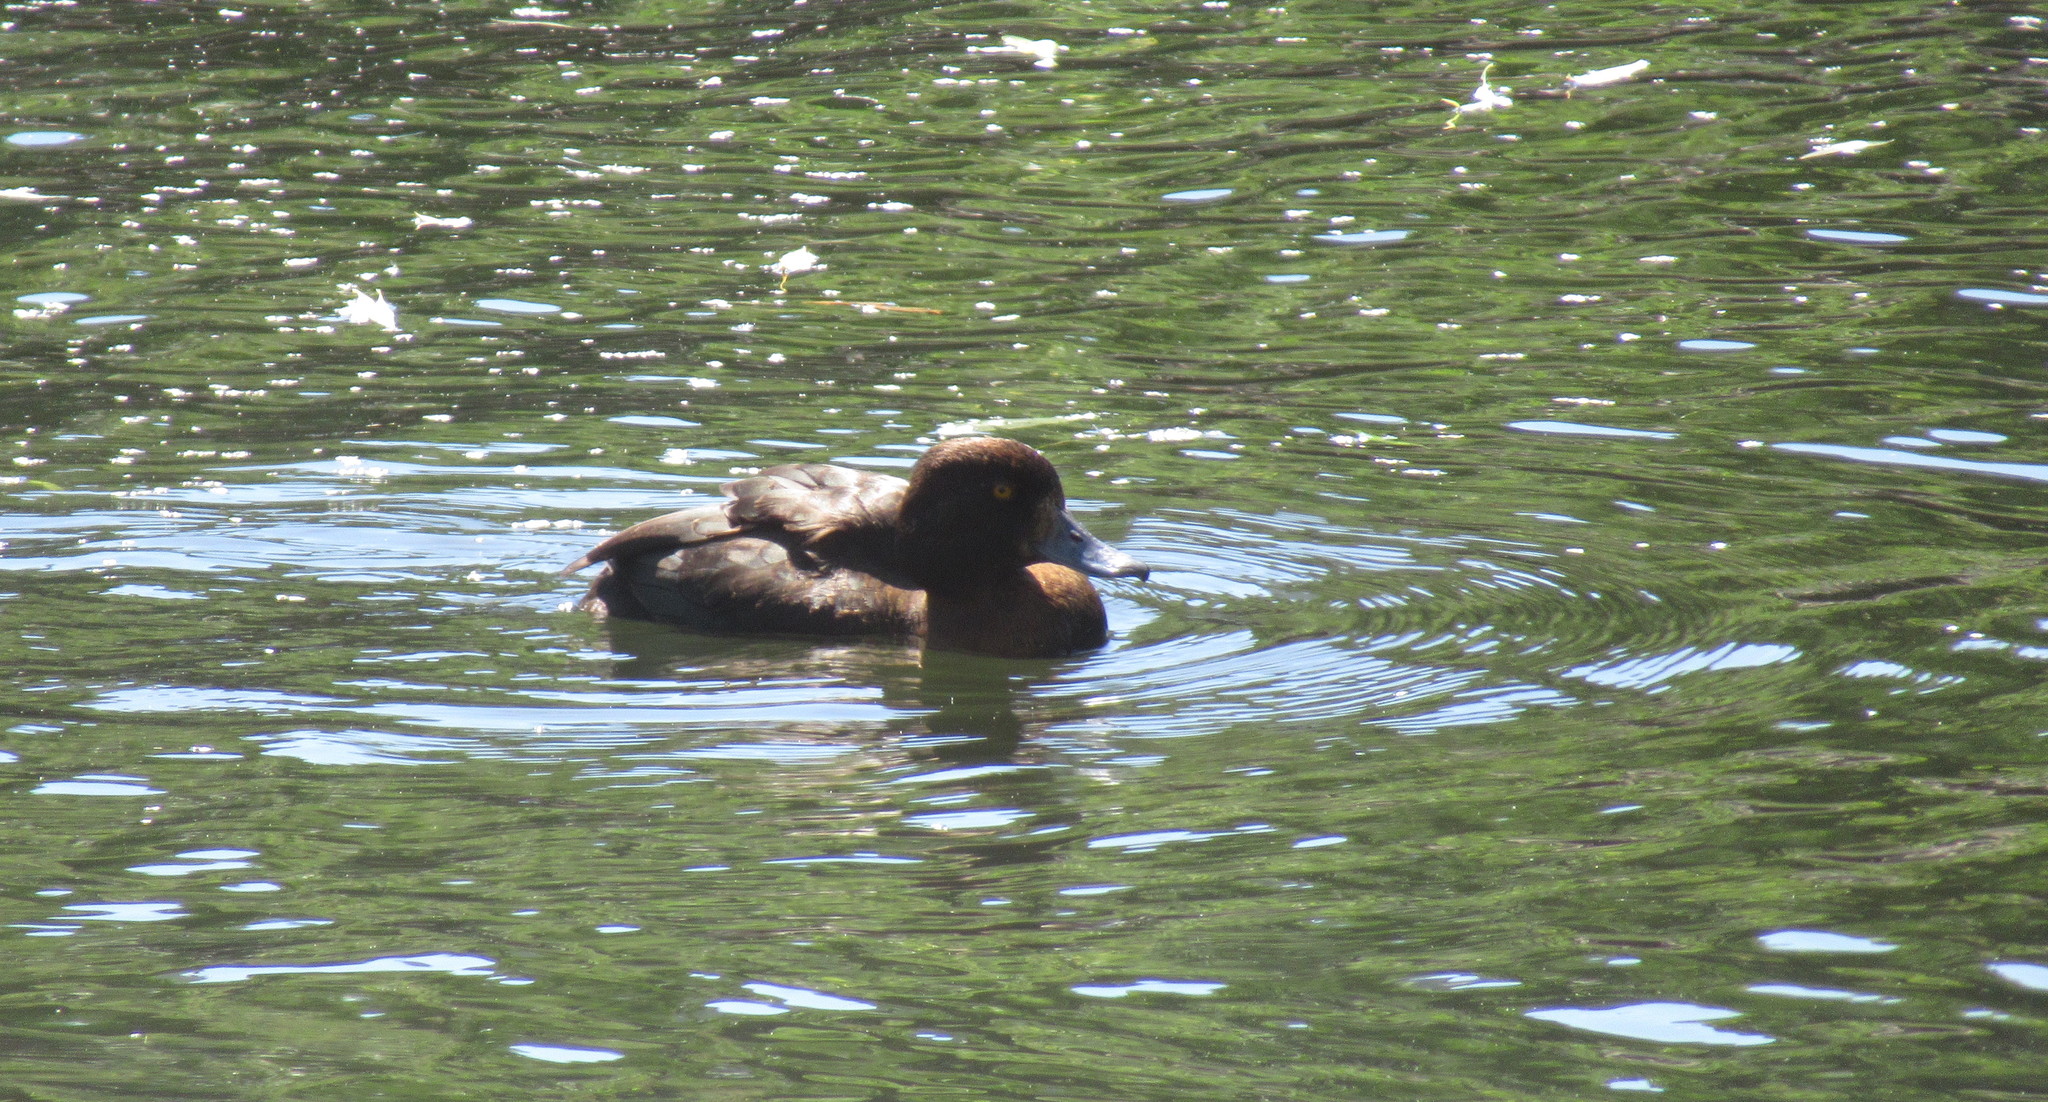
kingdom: Animalia
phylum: Chordata
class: Aves
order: Anseriformes
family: Anatidae
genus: Aythya
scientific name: Aythya fuligula
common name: Tufted duck
